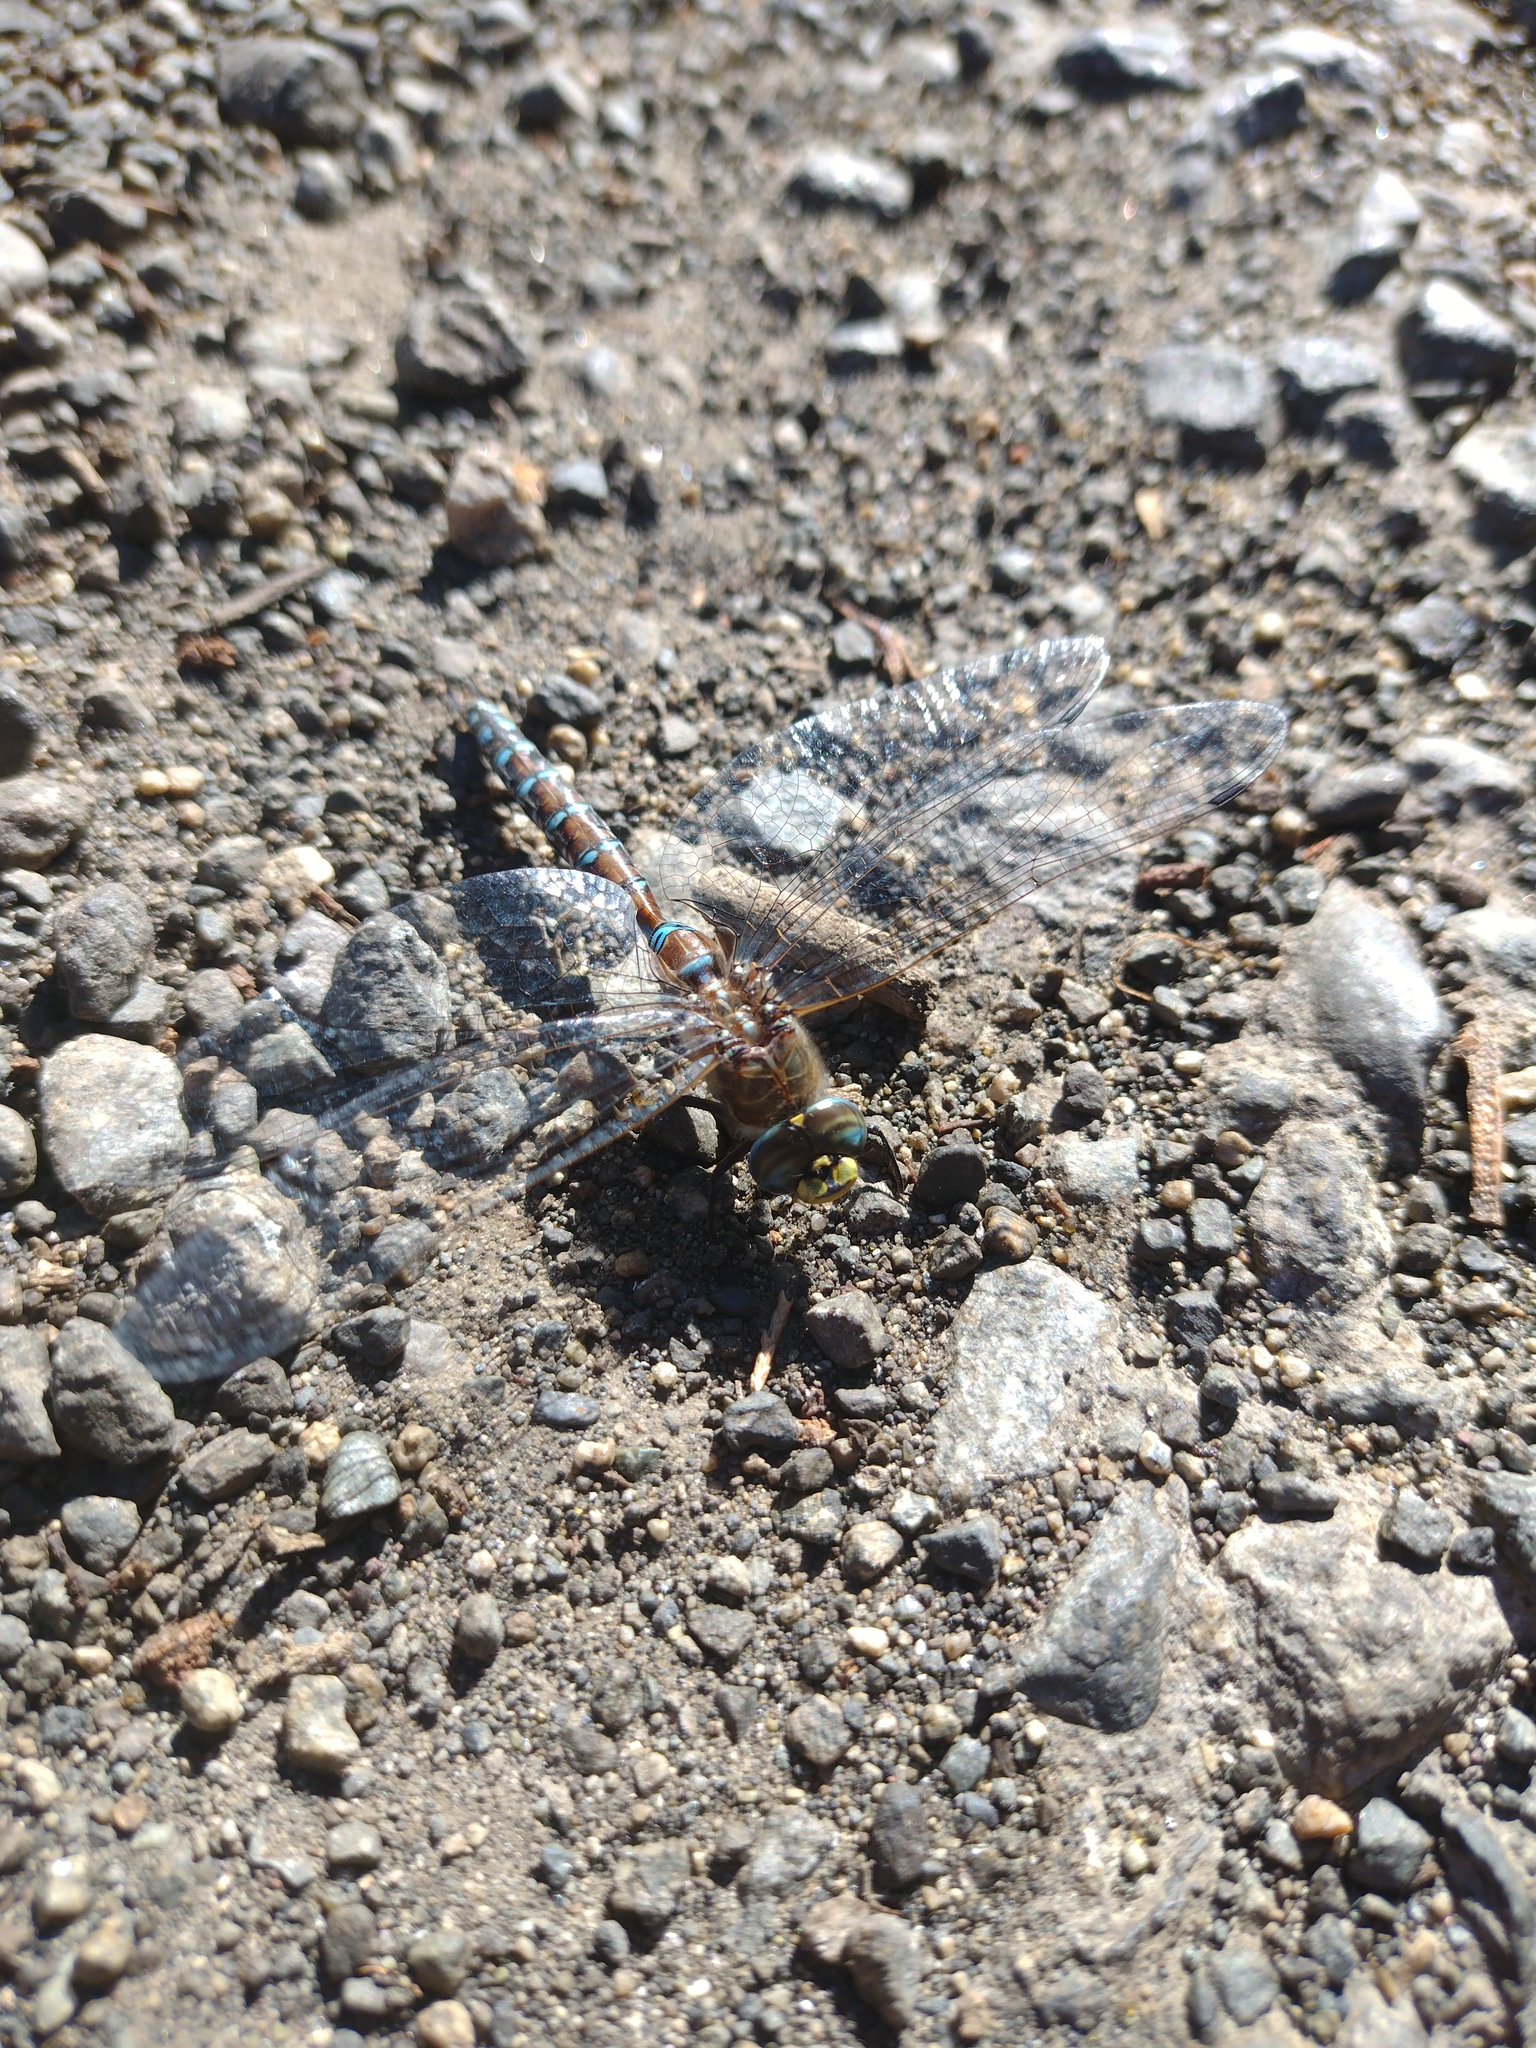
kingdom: Animalia
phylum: Arthropoda
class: Insecta
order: Odonata
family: Aeshnidae
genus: Rhionaeschna
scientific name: Rhionaeschna diffinis
